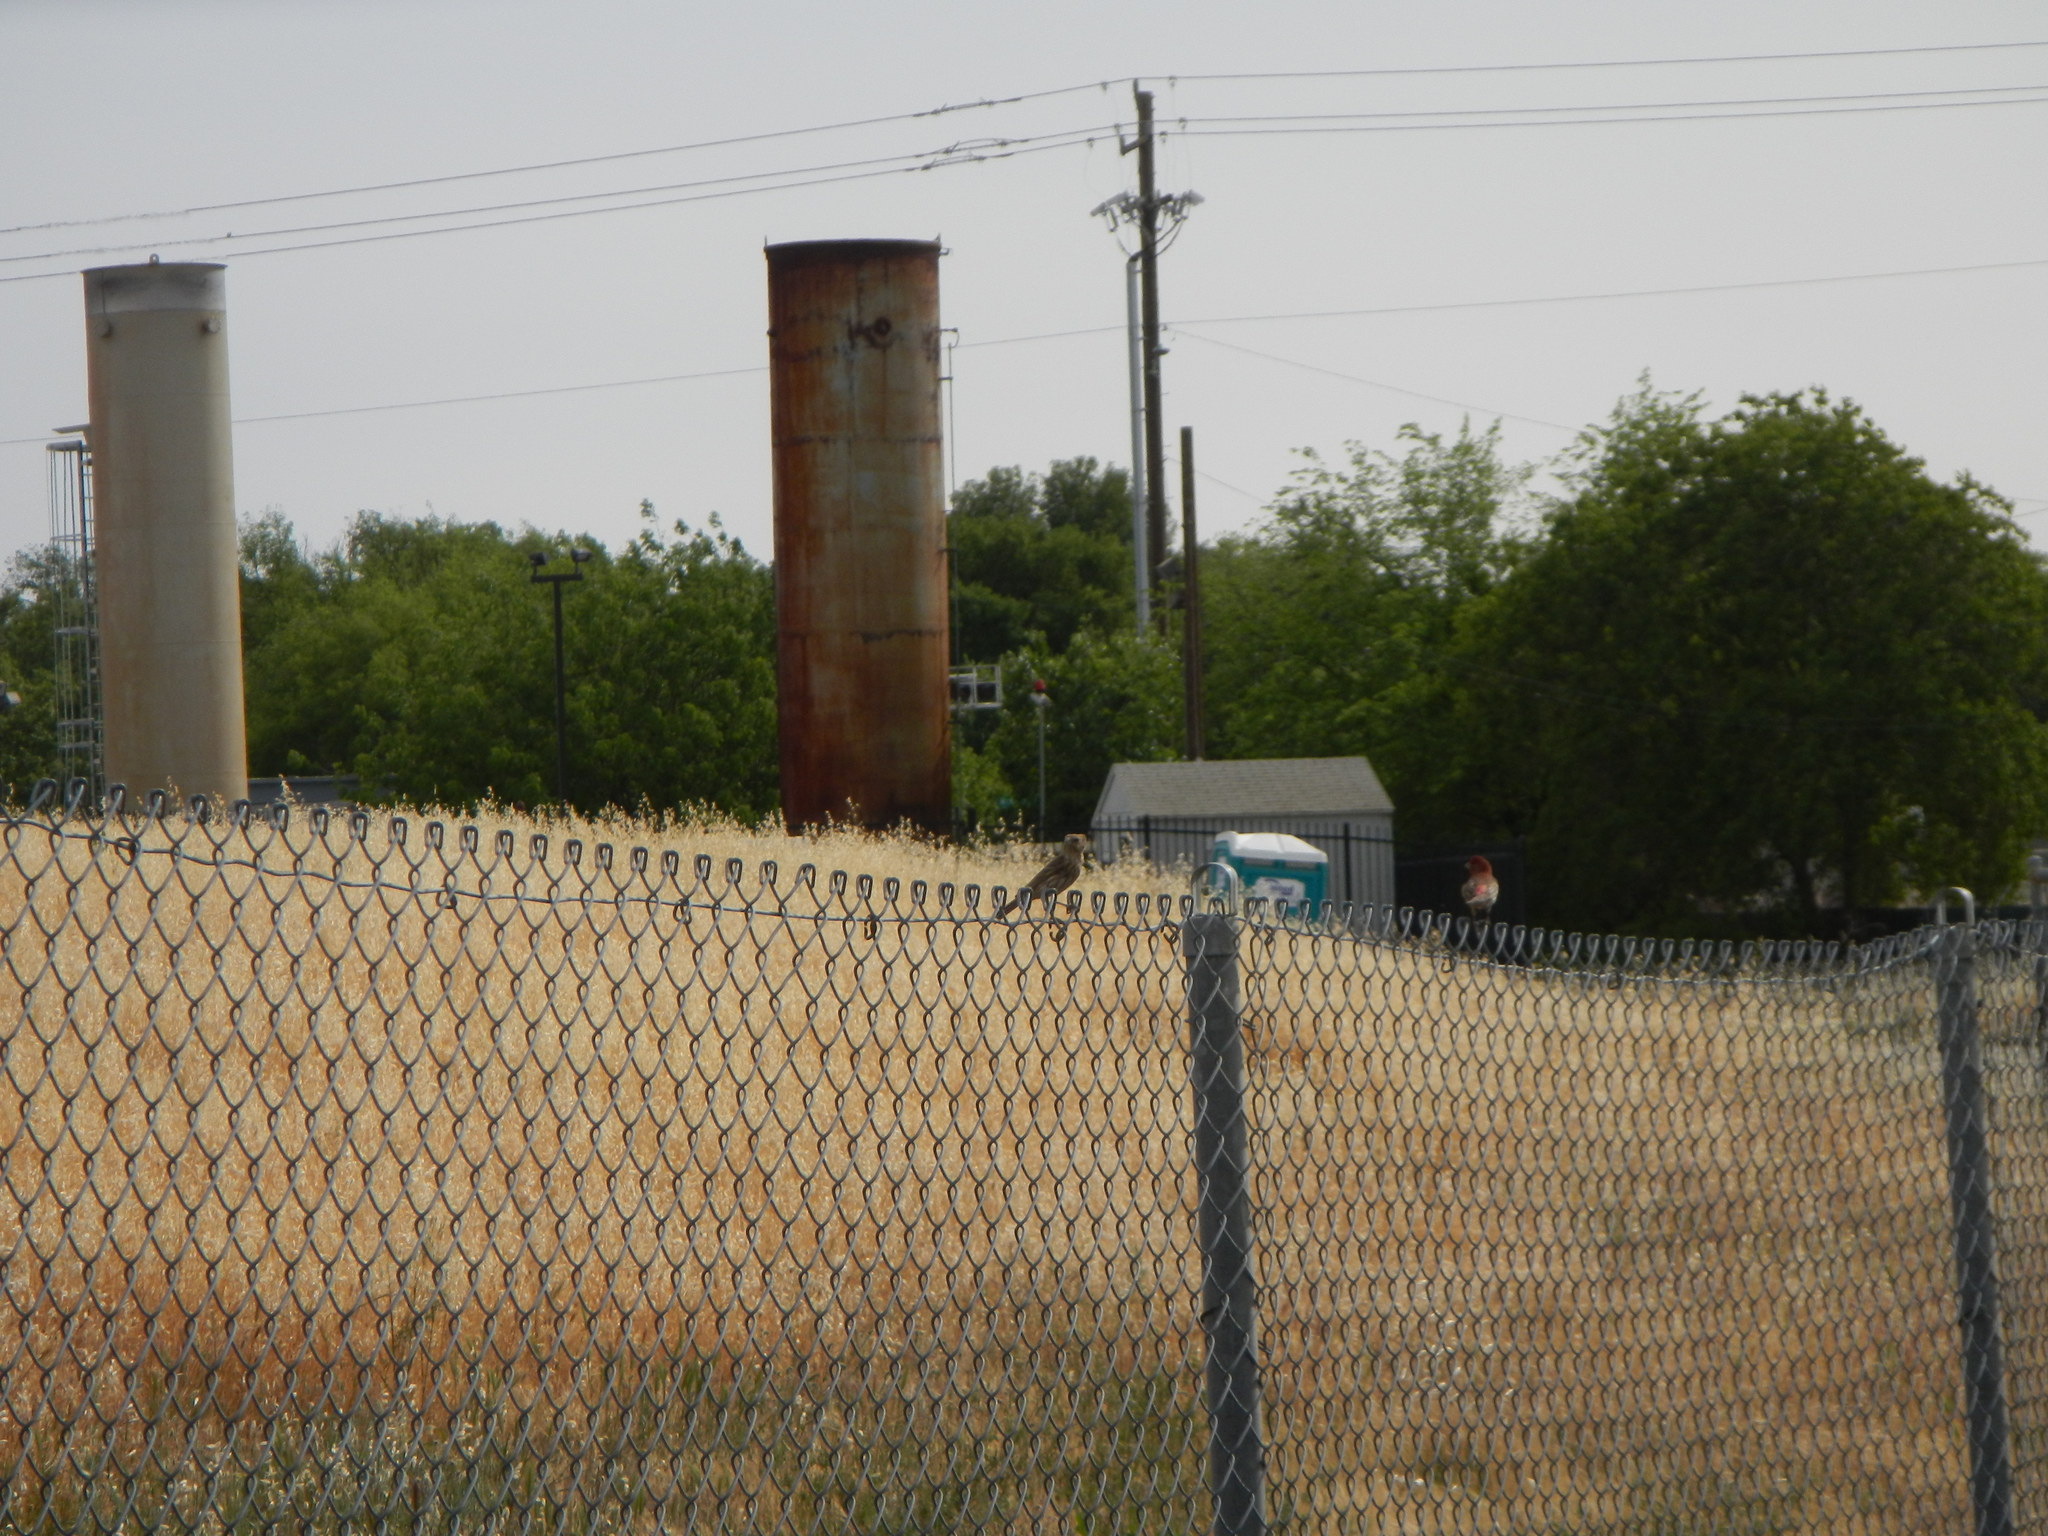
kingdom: Animalia
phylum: Chordata
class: Aves
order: Passeriformes
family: Fringillidae
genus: Haemorhous
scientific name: Haemorhous mexicanus
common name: House finch
